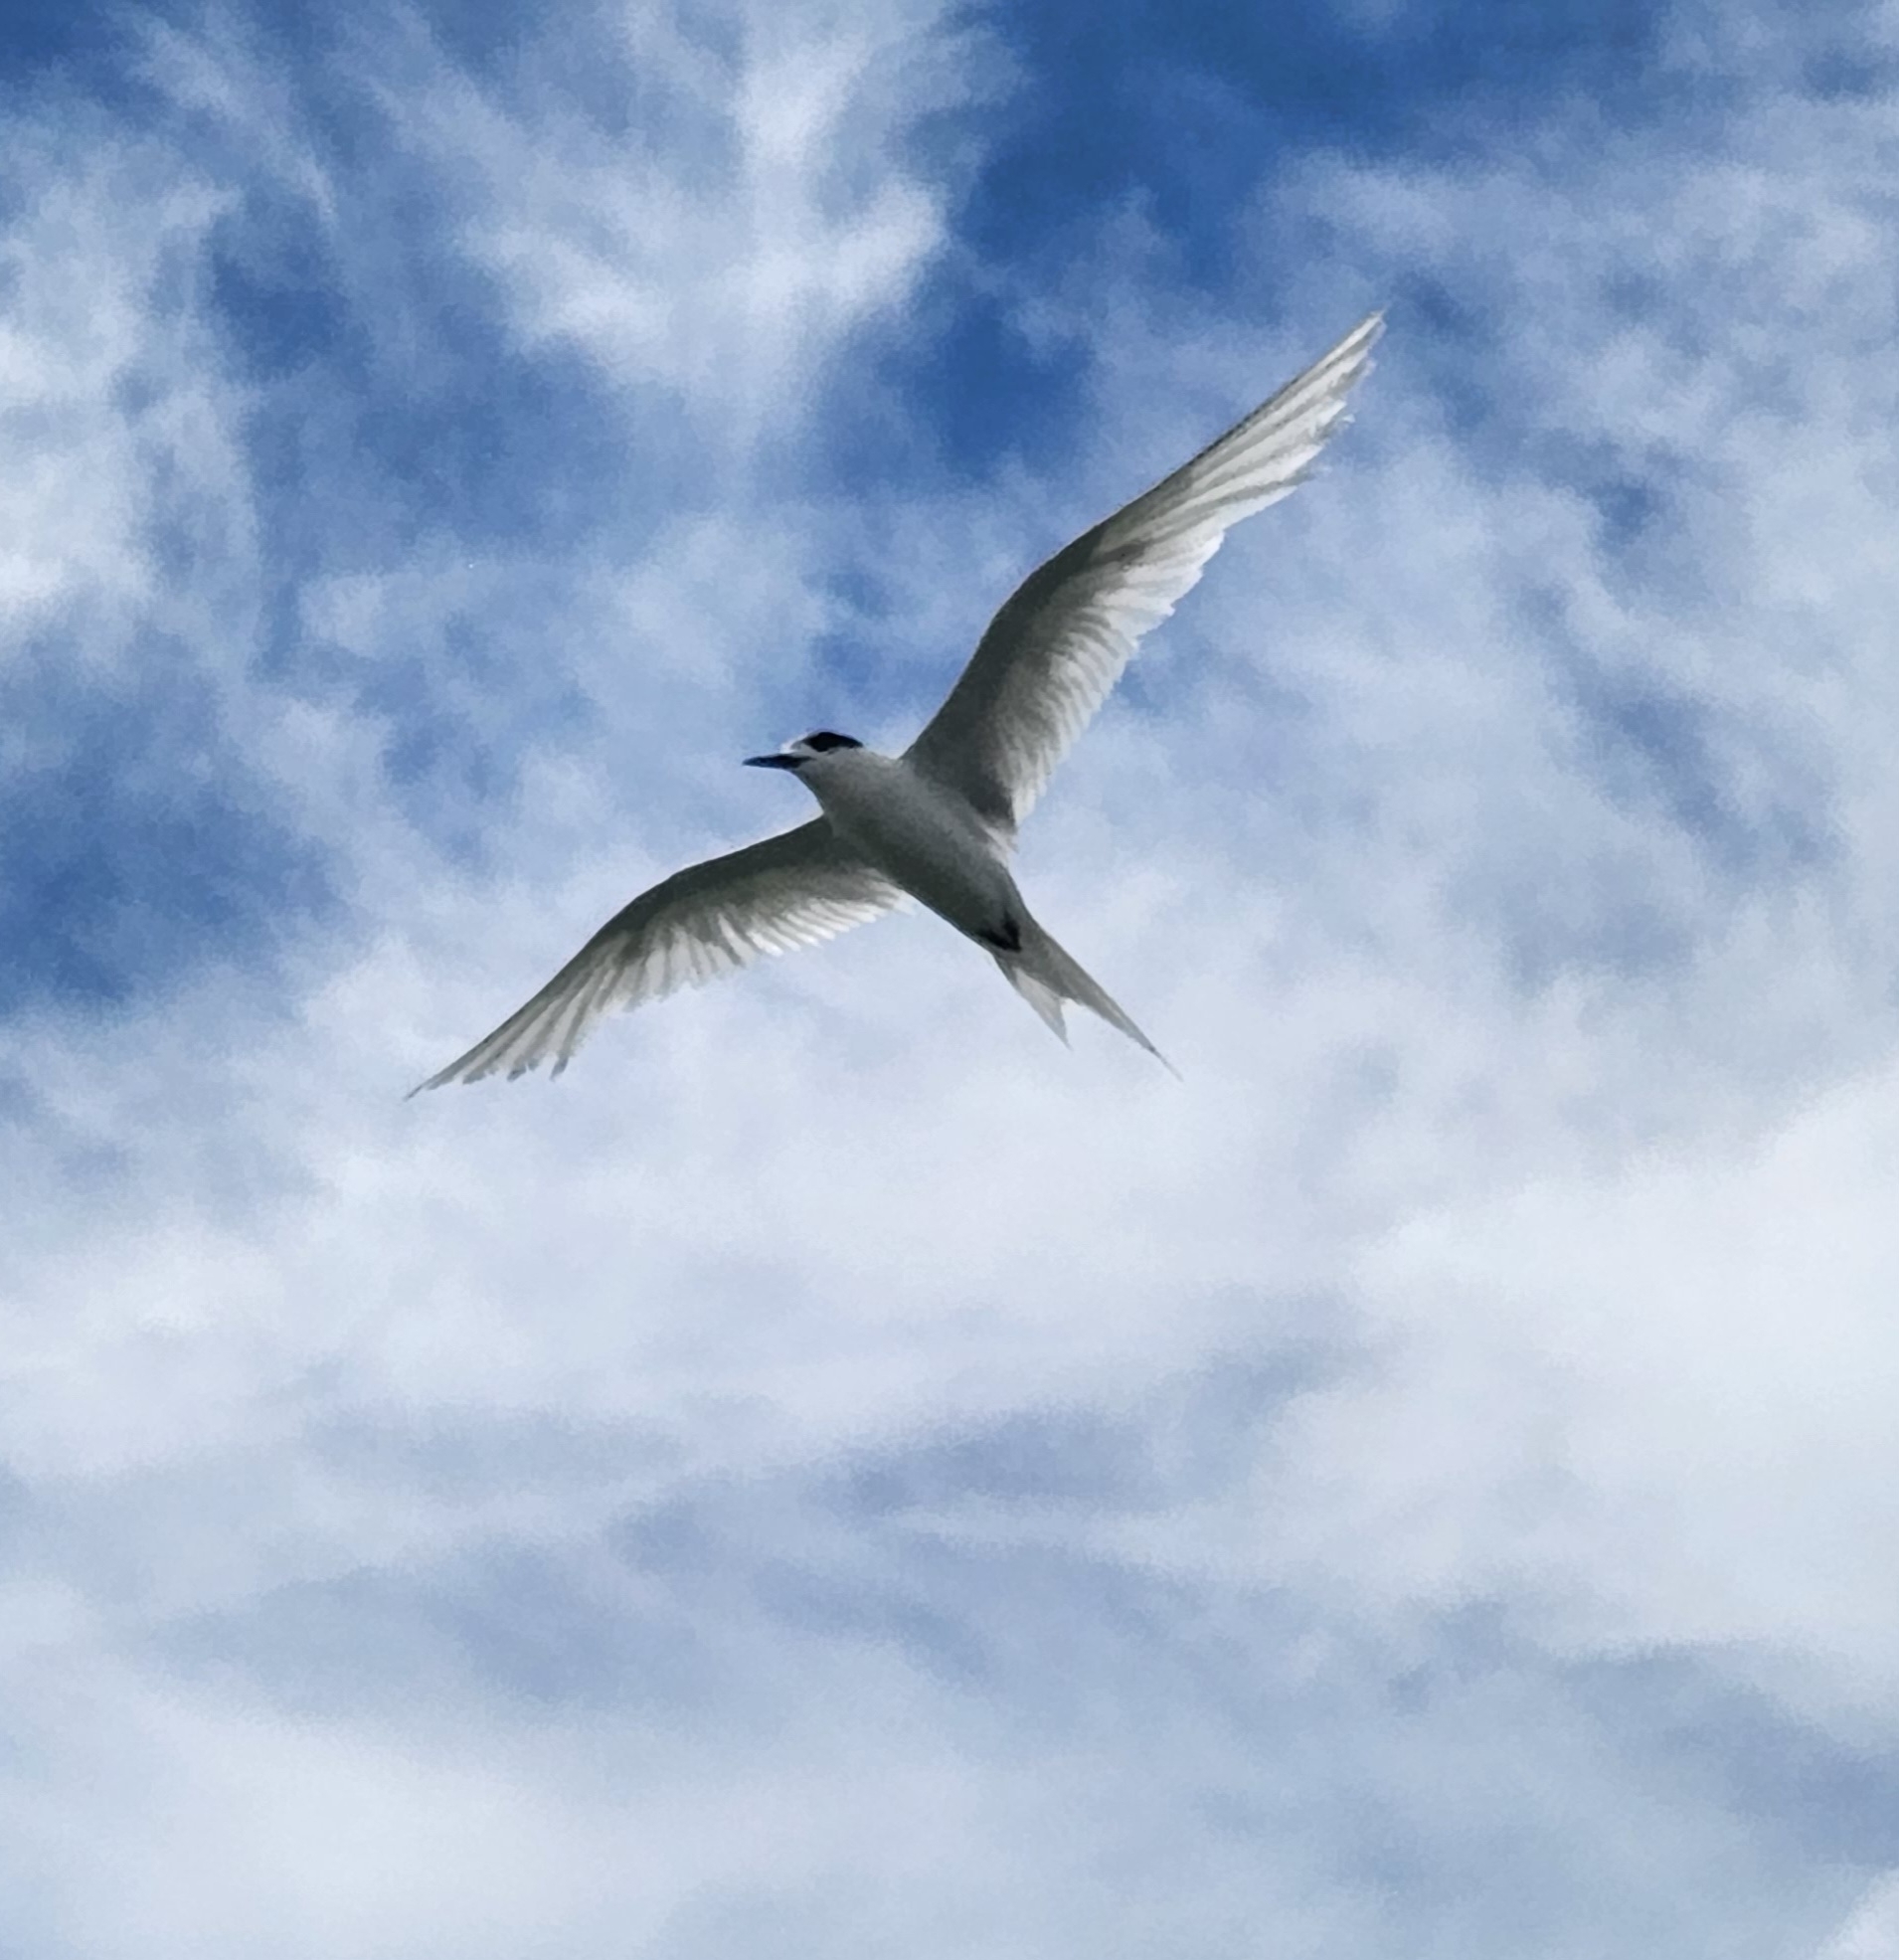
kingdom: Animalia
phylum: Chordata
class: Aves
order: Charadriiformes
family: Laridae
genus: Sterna
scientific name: Sterna striata
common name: White-fronted tern
